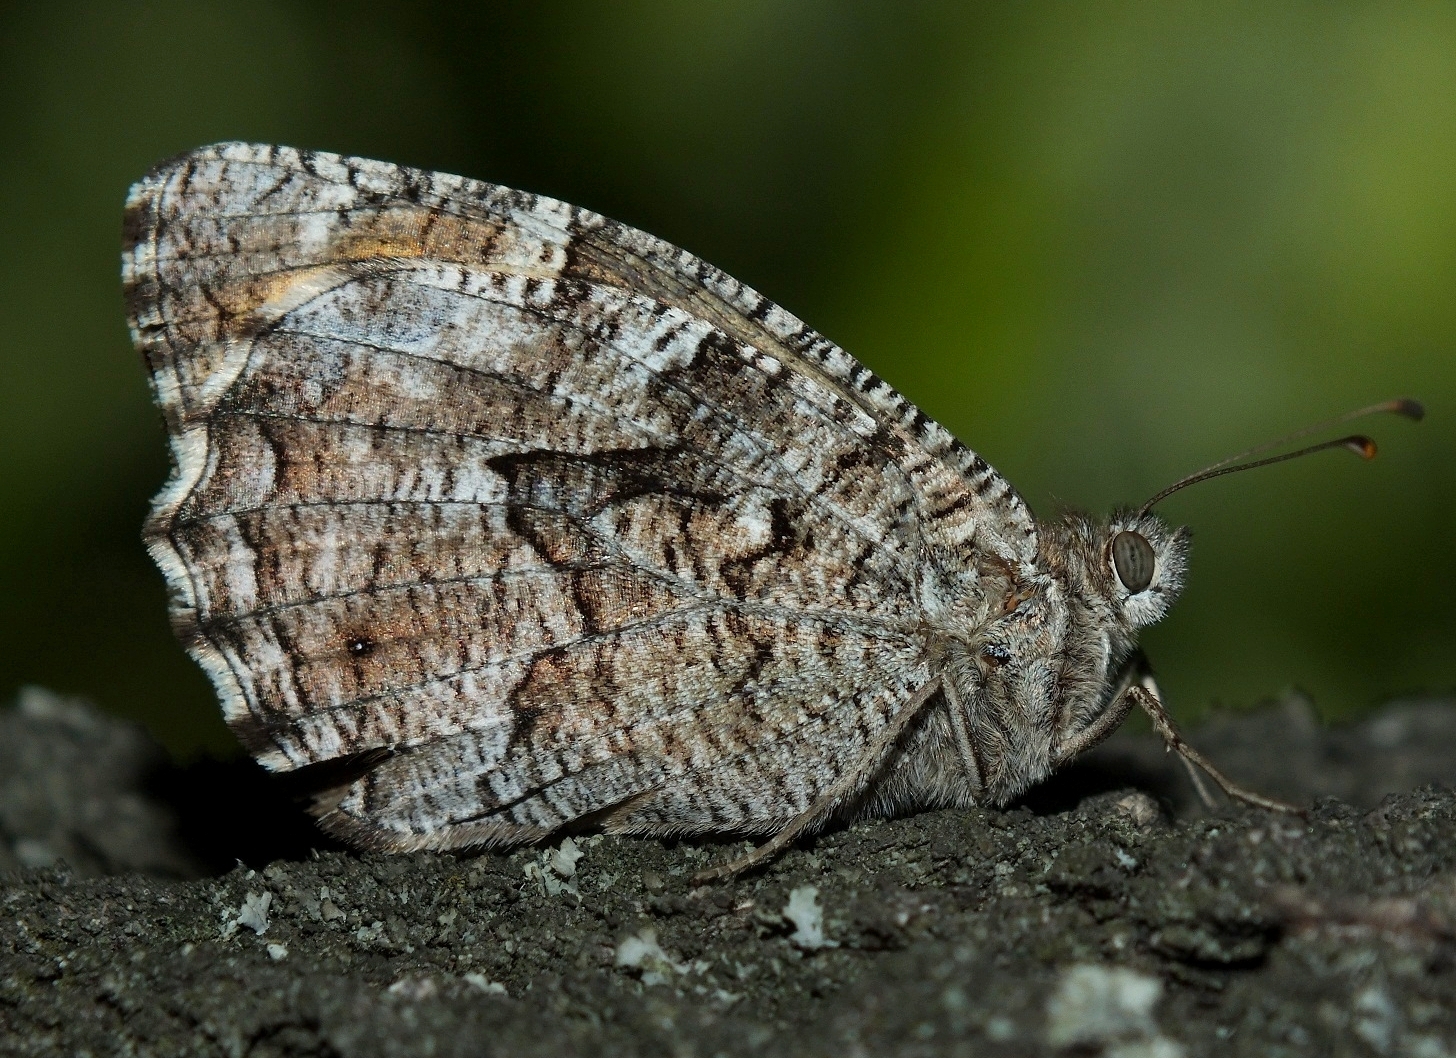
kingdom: Animalia
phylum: Arthropoda
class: Insecta
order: Lepidoptera
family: Nymphalidae
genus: Hipparchia
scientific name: Hipparchia volgensis
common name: Delattin’s grayling
